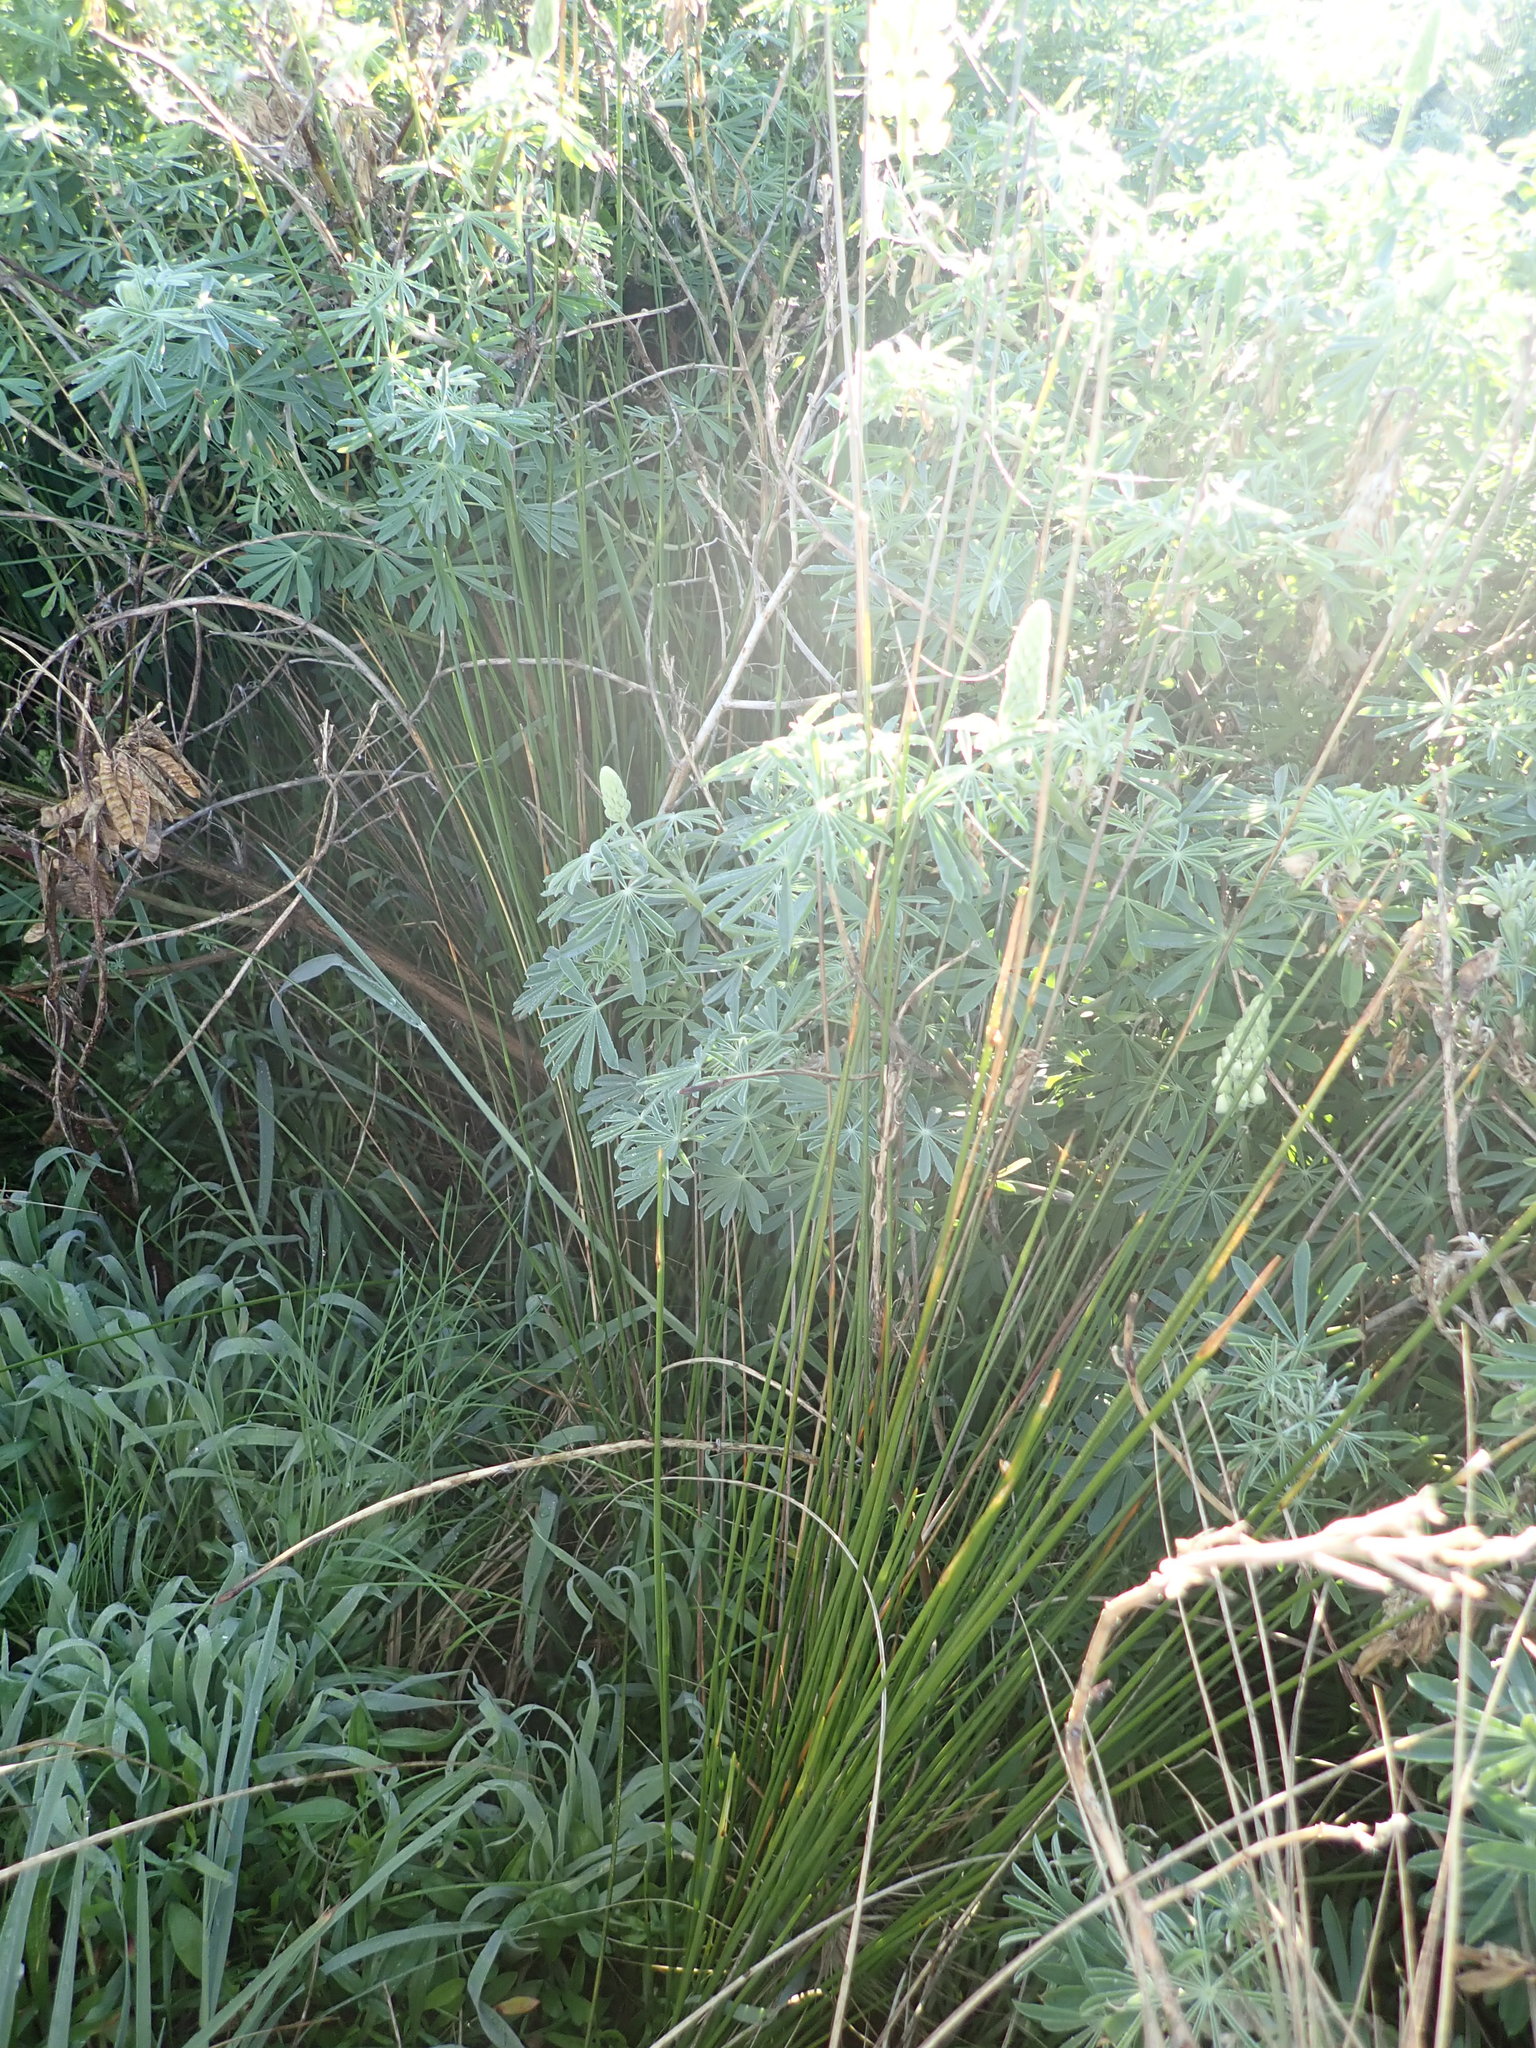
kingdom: Plantae
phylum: Tracheophyta
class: Liliopsida
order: Poales
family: Cyperaceae
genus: Ficinia
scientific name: Ficinia nodosa
